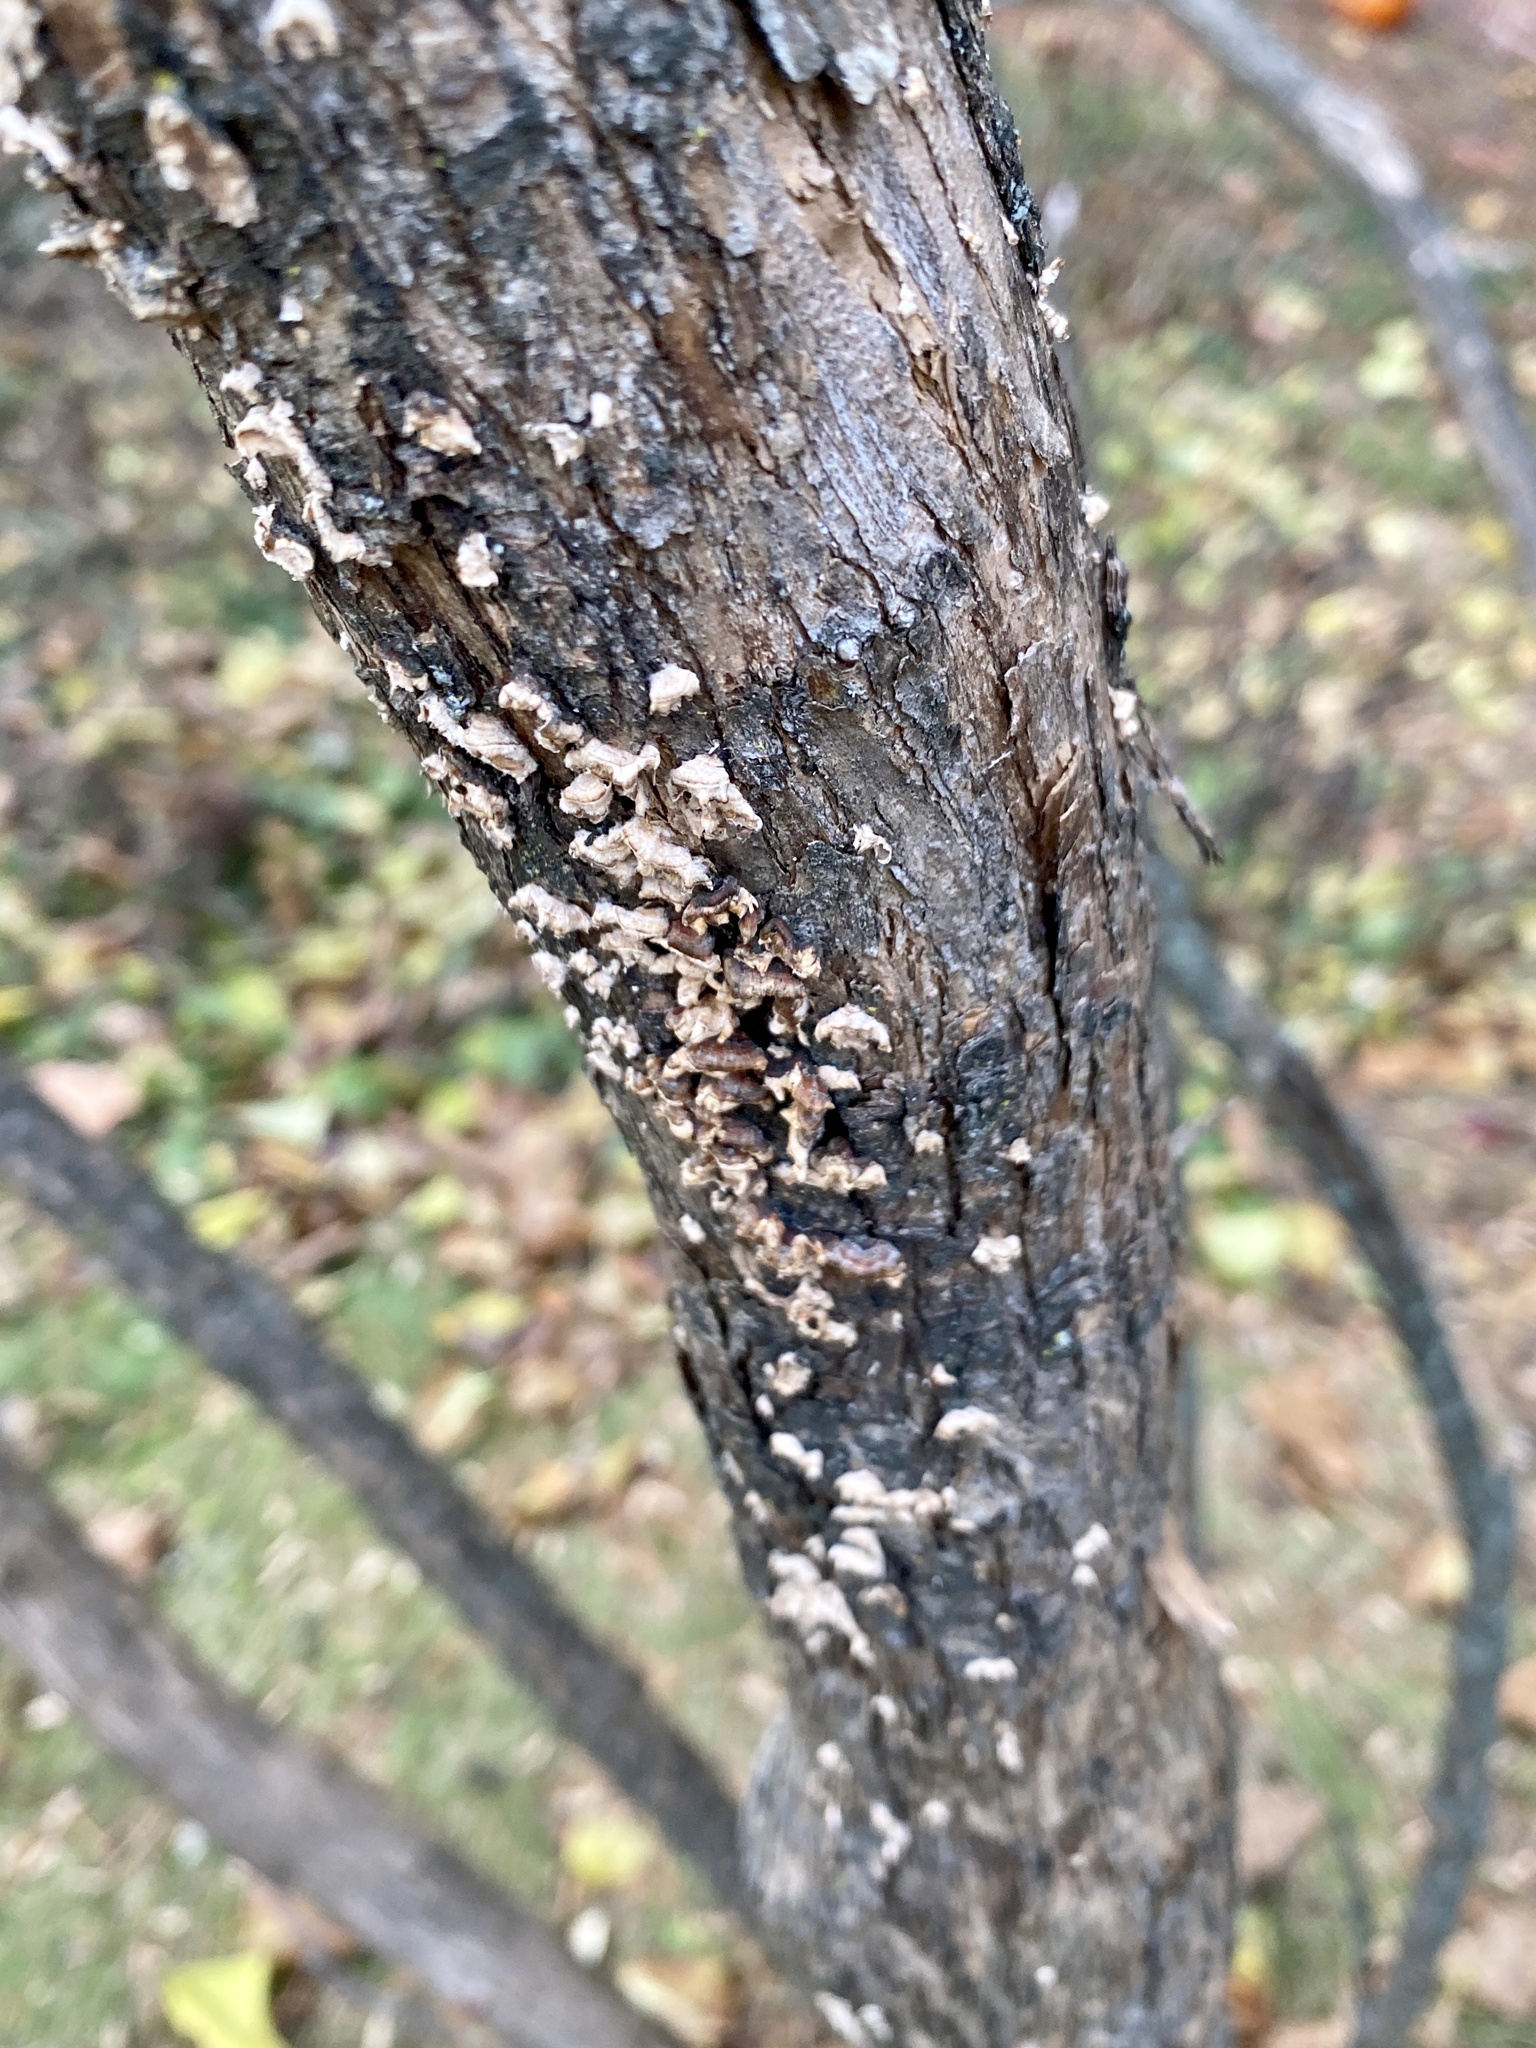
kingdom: Fungi
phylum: Basidiomycota
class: Agaricomycetes
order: Russulales
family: Stereaceae
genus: Stereum
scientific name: Stereum complicatum
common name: Crowded parchment
